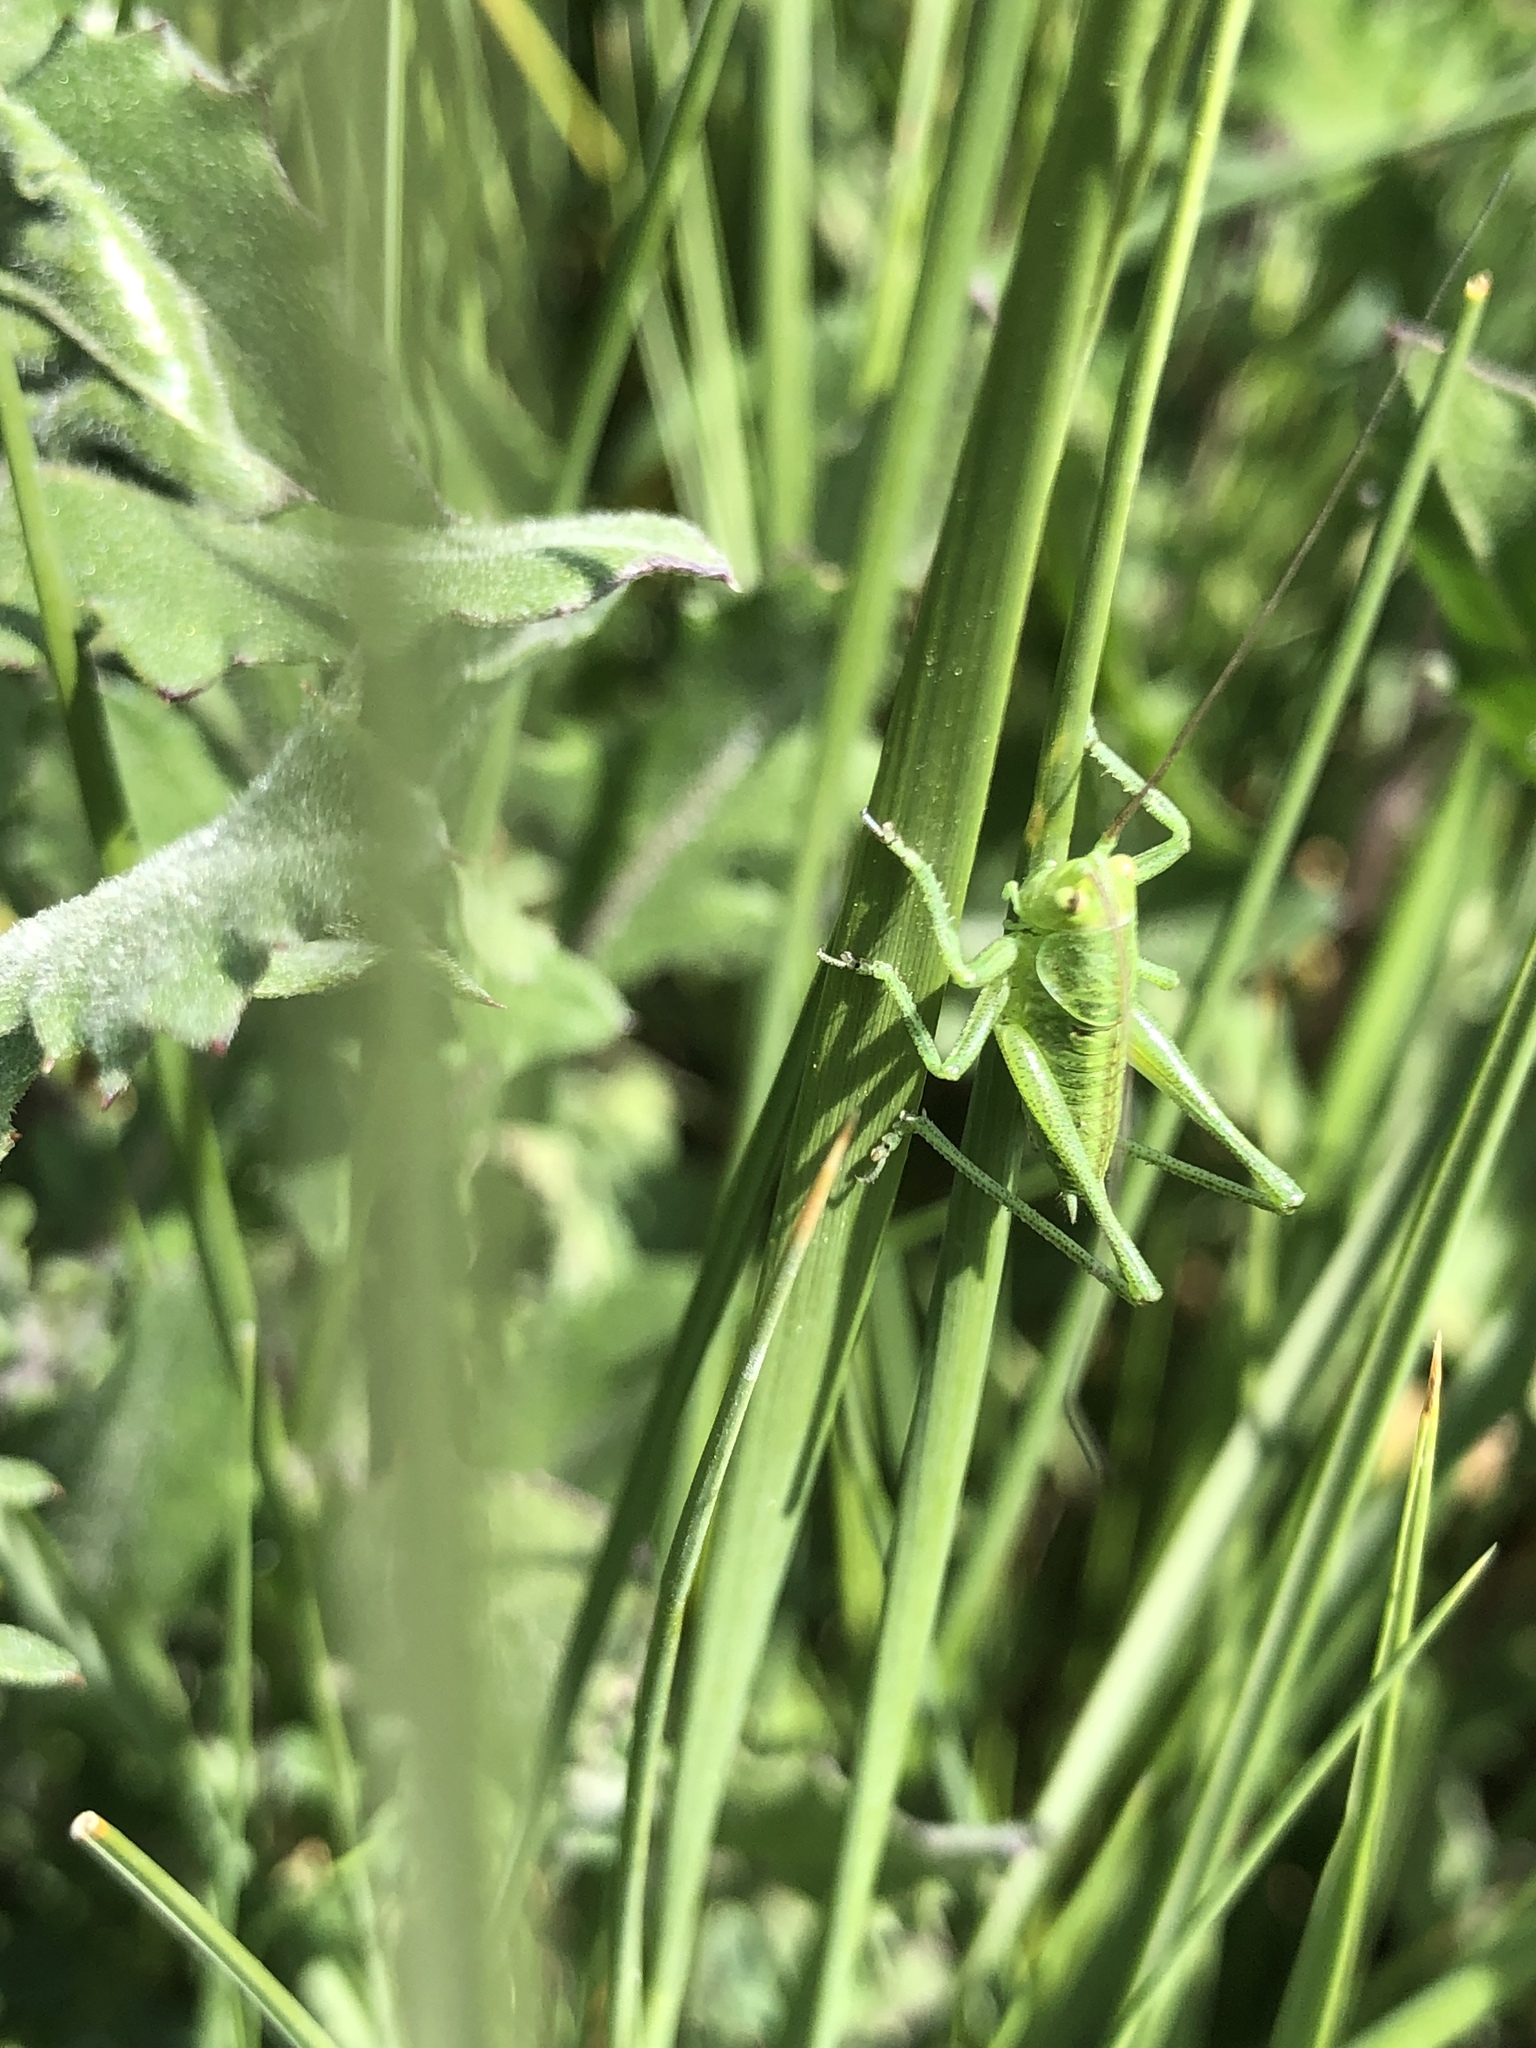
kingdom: Animalia
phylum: Arthropoda
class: Insecta
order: Orthoptera
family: Tettigoniidae
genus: Tettigonia
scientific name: Tettigonia viridissima
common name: Great green bush-cricket
